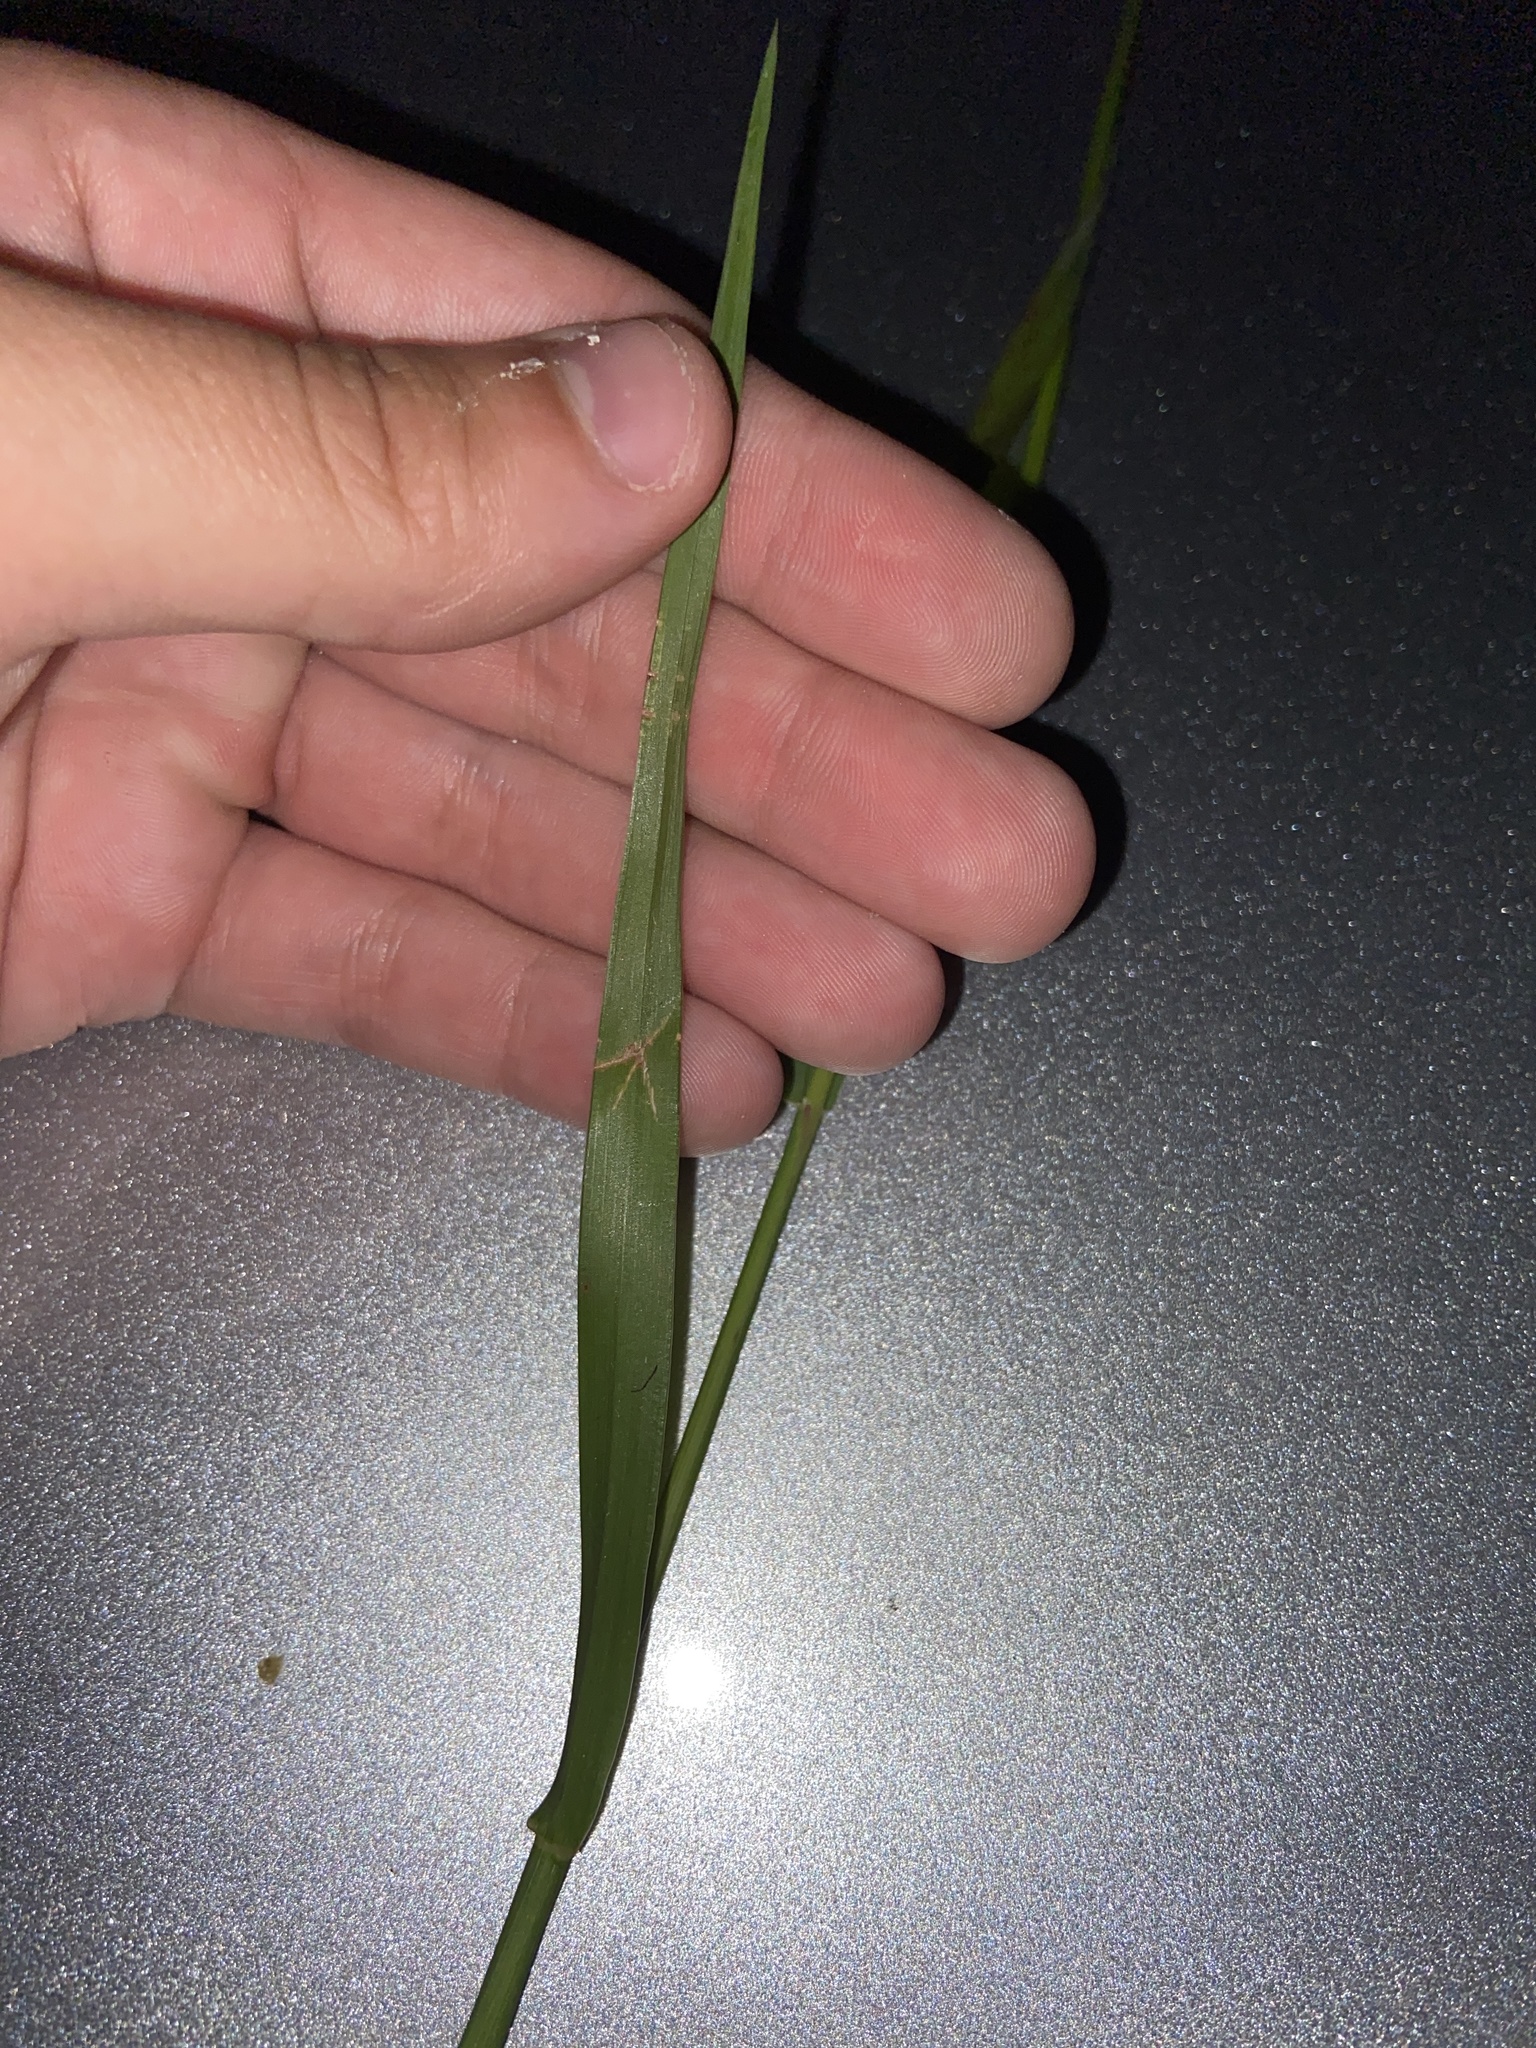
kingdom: Plantae
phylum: Tracheophyta
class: Liliopsida
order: Poales
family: Poaceae
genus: Setaria
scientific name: Setaria parviflora
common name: Knotroot bristle-grass
